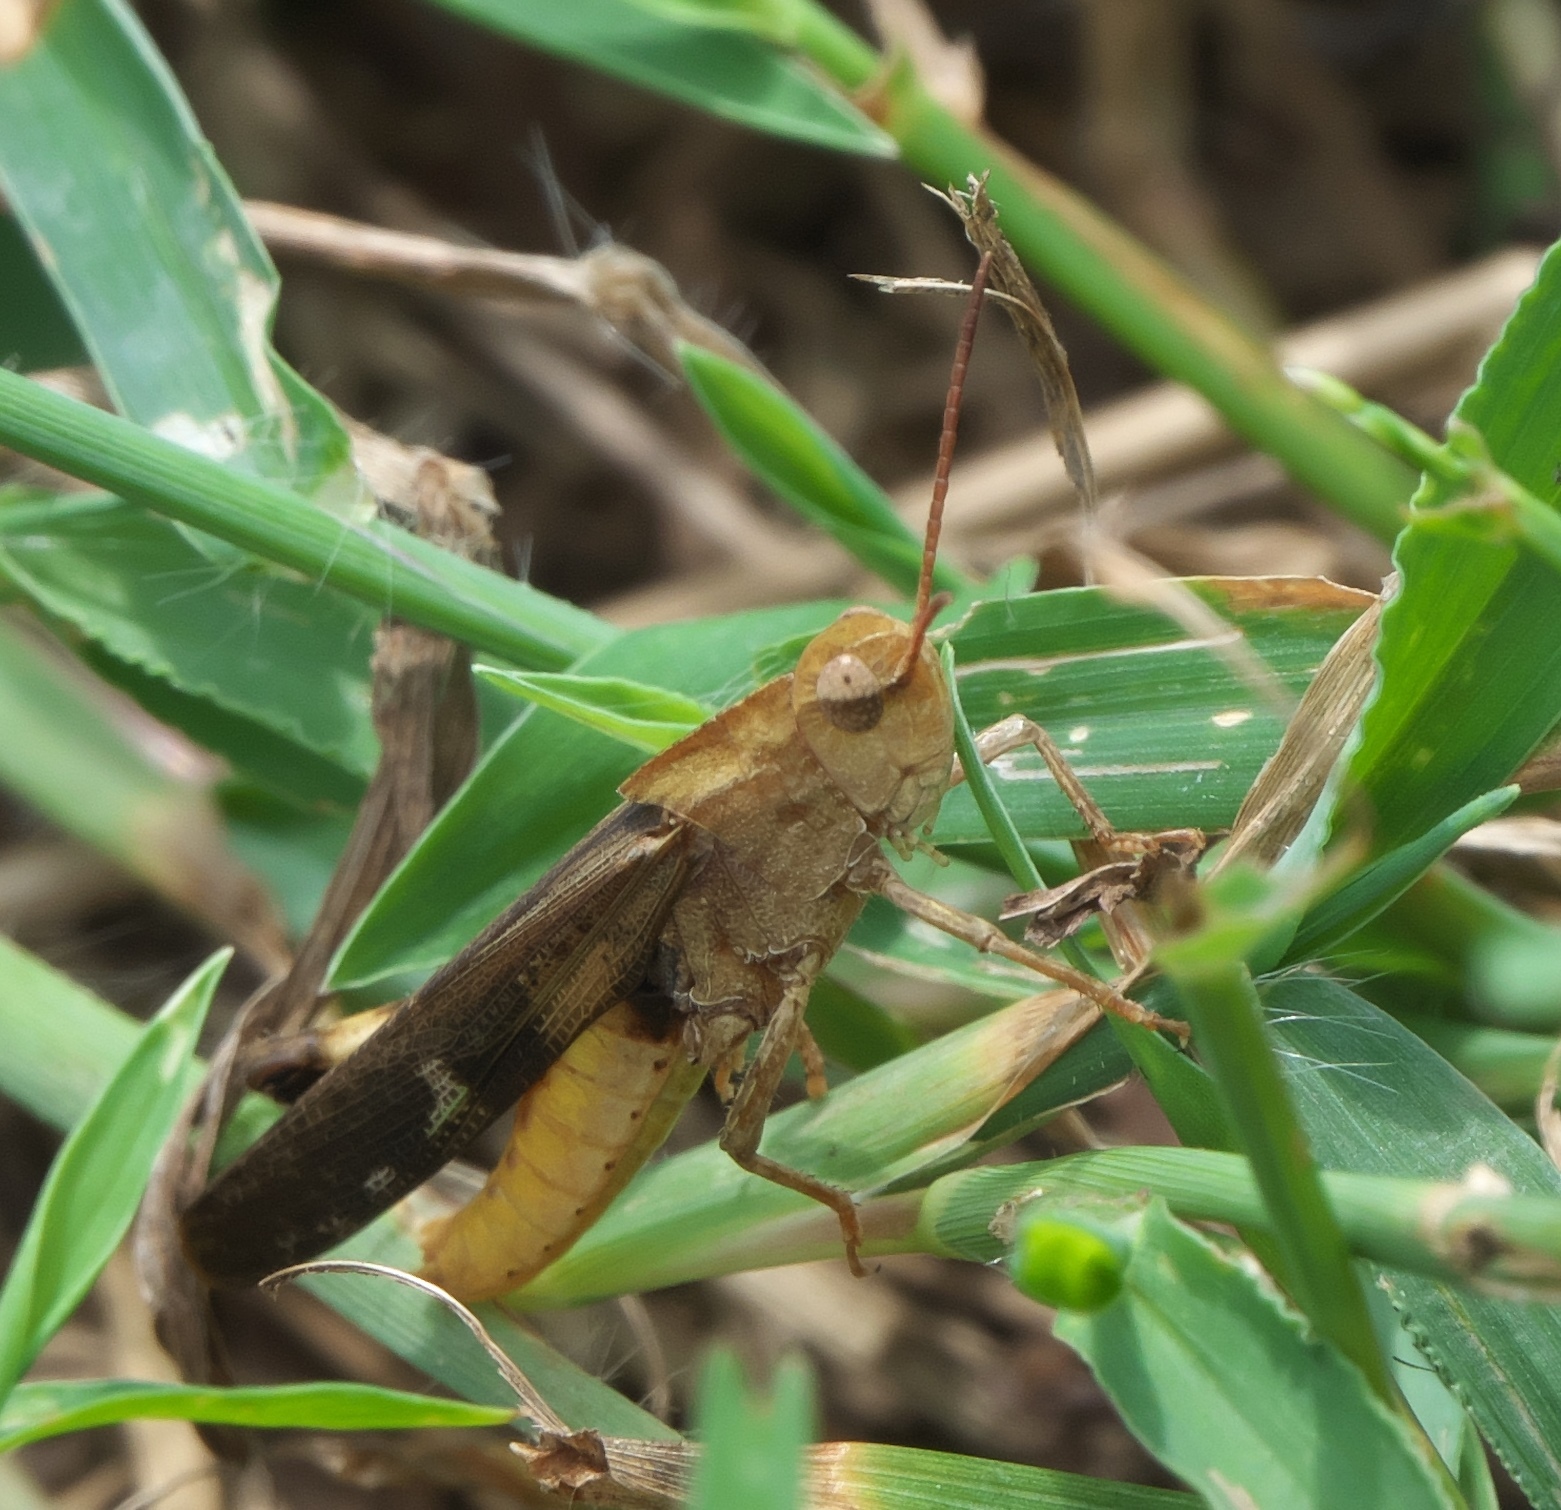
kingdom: Animalia
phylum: Arthropoda
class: Insecta
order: Orthoptera
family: Acrididae
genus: Chortophaga
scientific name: Chortophaga viridifasciata
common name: Green-striped grasshopper
